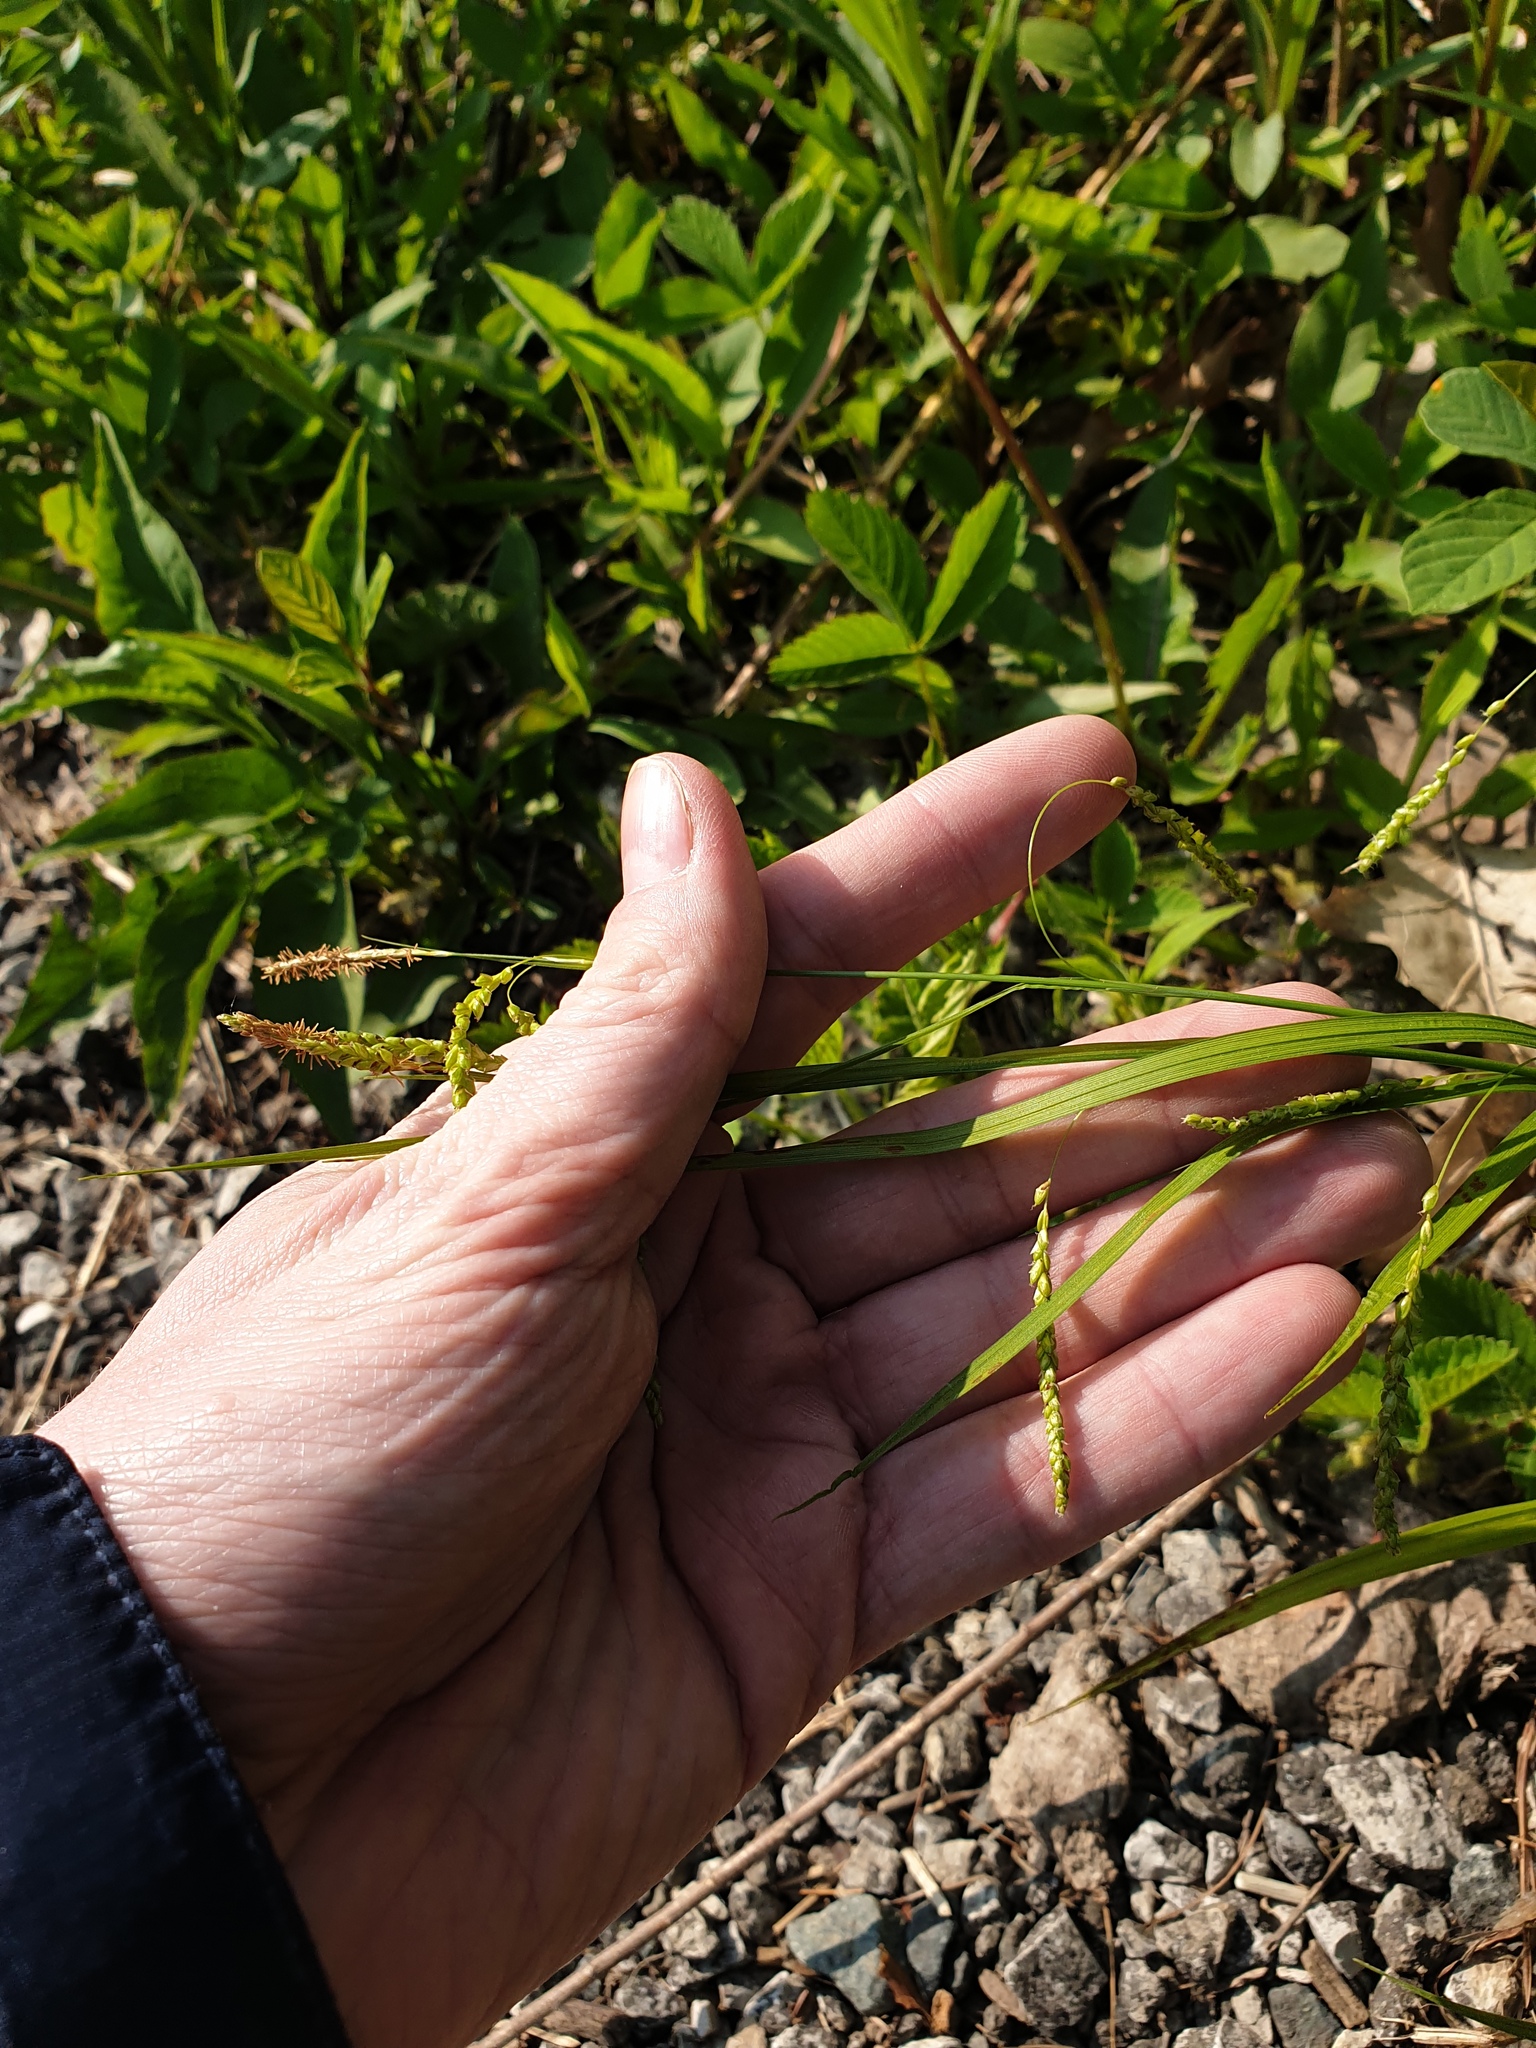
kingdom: Plantae
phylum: Tracheophyta
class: Liliopsida
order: Poales
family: Cyperaceae
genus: Carex
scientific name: Carex gracillima
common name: Graceful sedge
